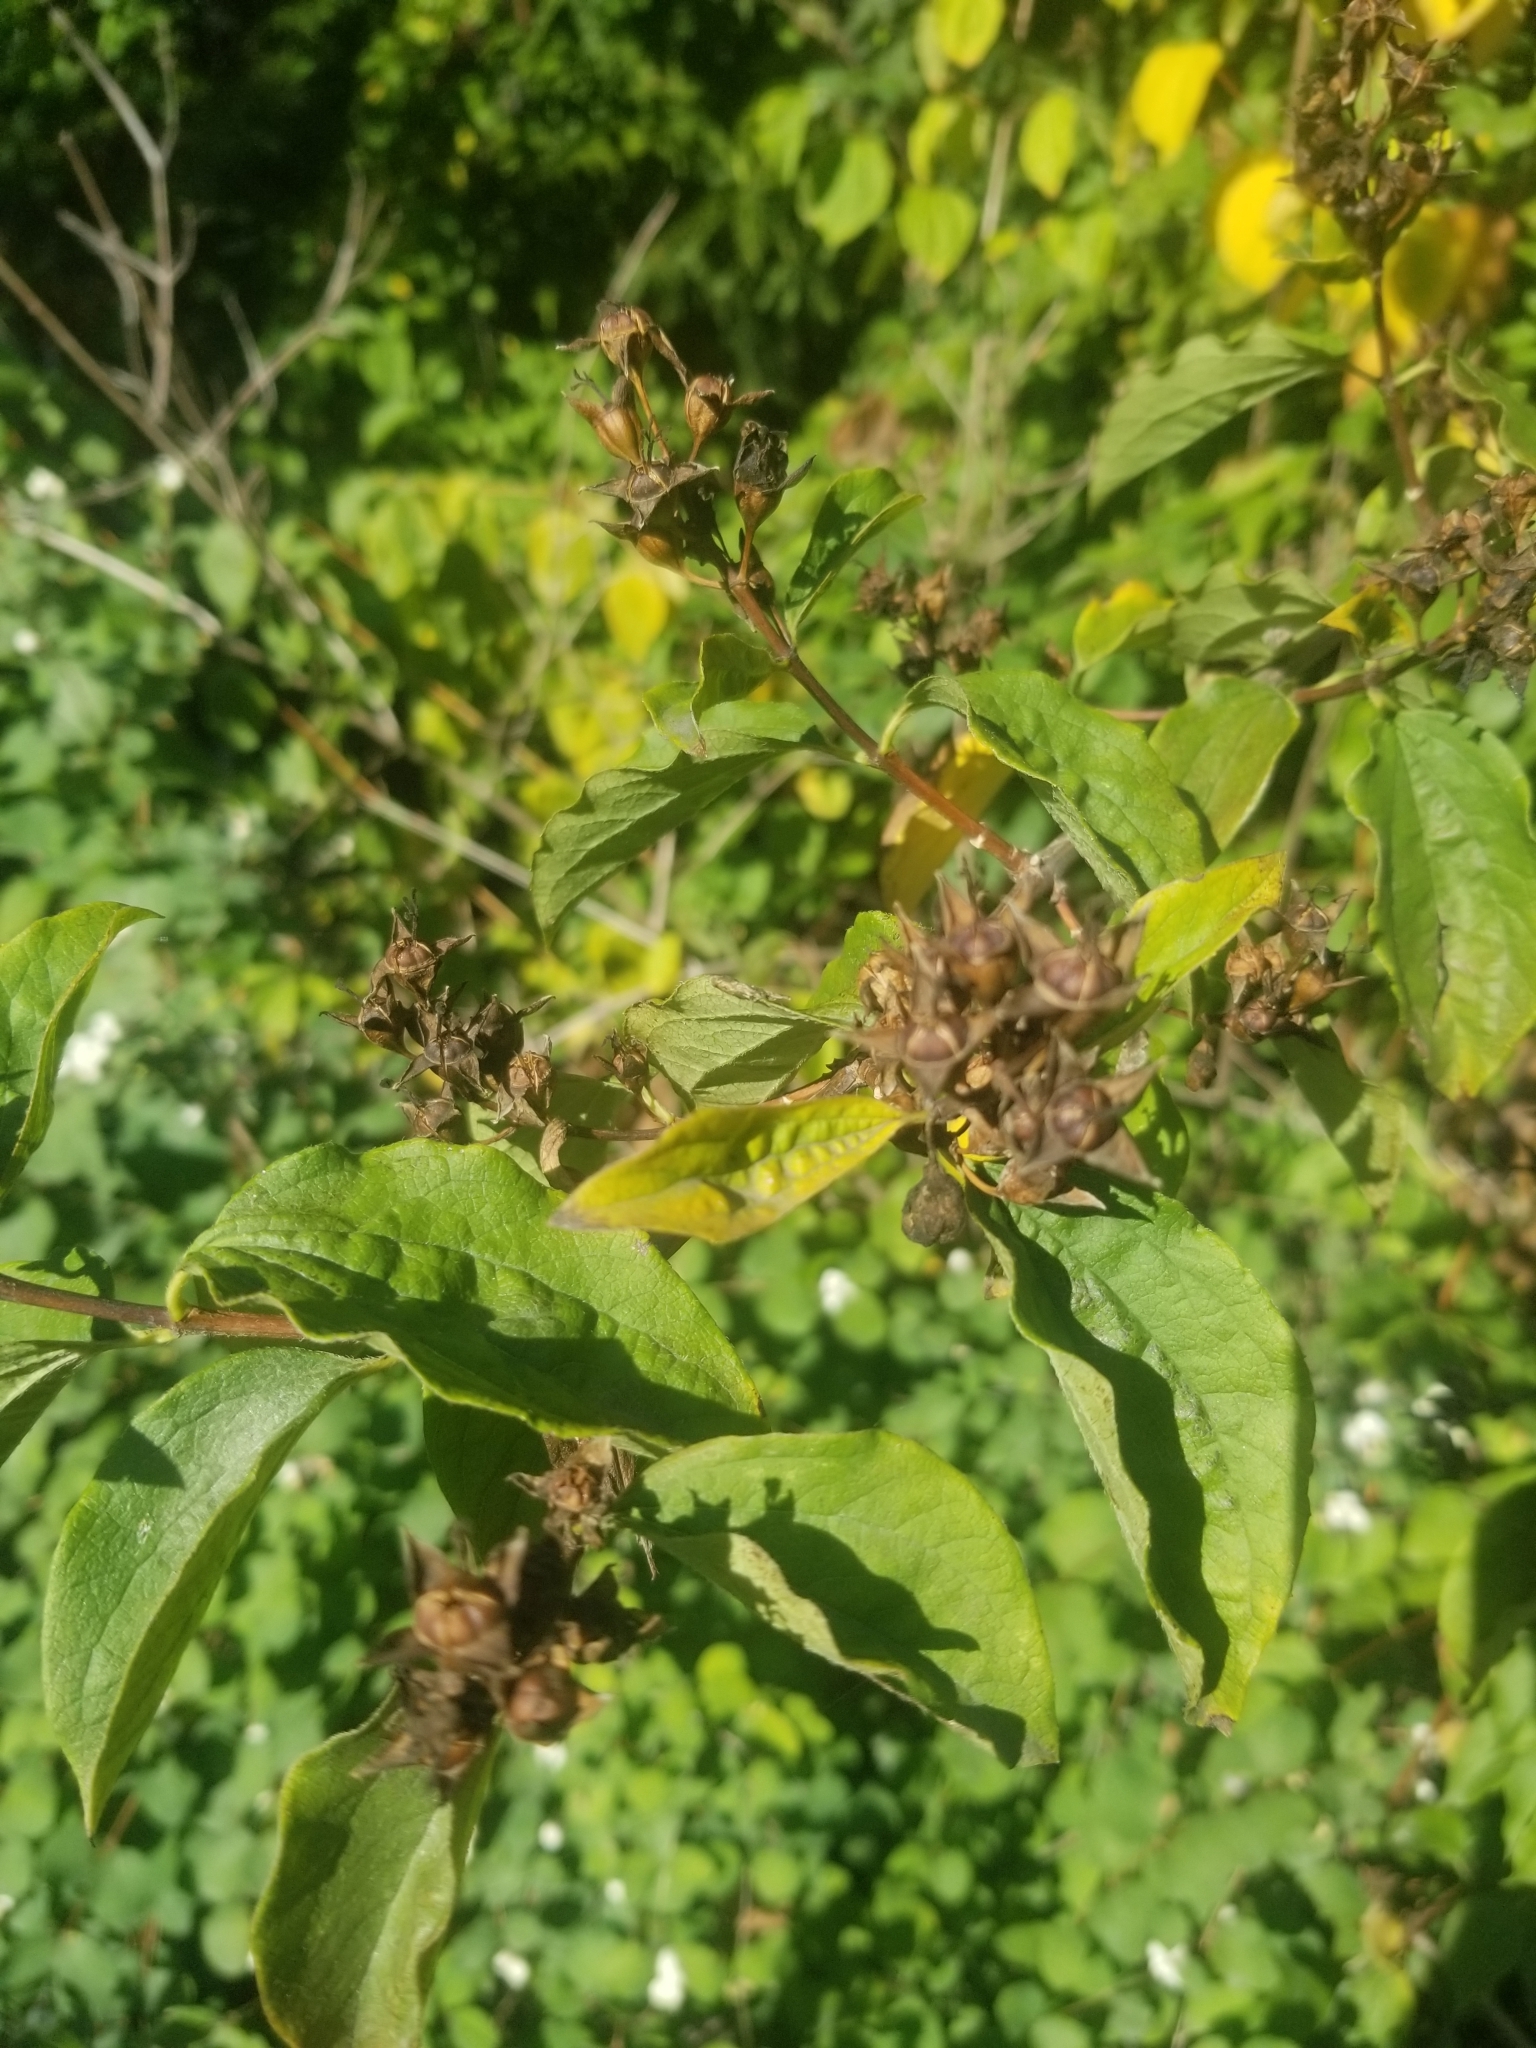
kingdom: Plantae
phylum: Tracheophyta
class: Magnoliopsida
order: Cornales
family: Hydrangeaceae
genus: Philadelphus
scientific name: Philadelphus lewisii
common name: Lewis's mock orange
